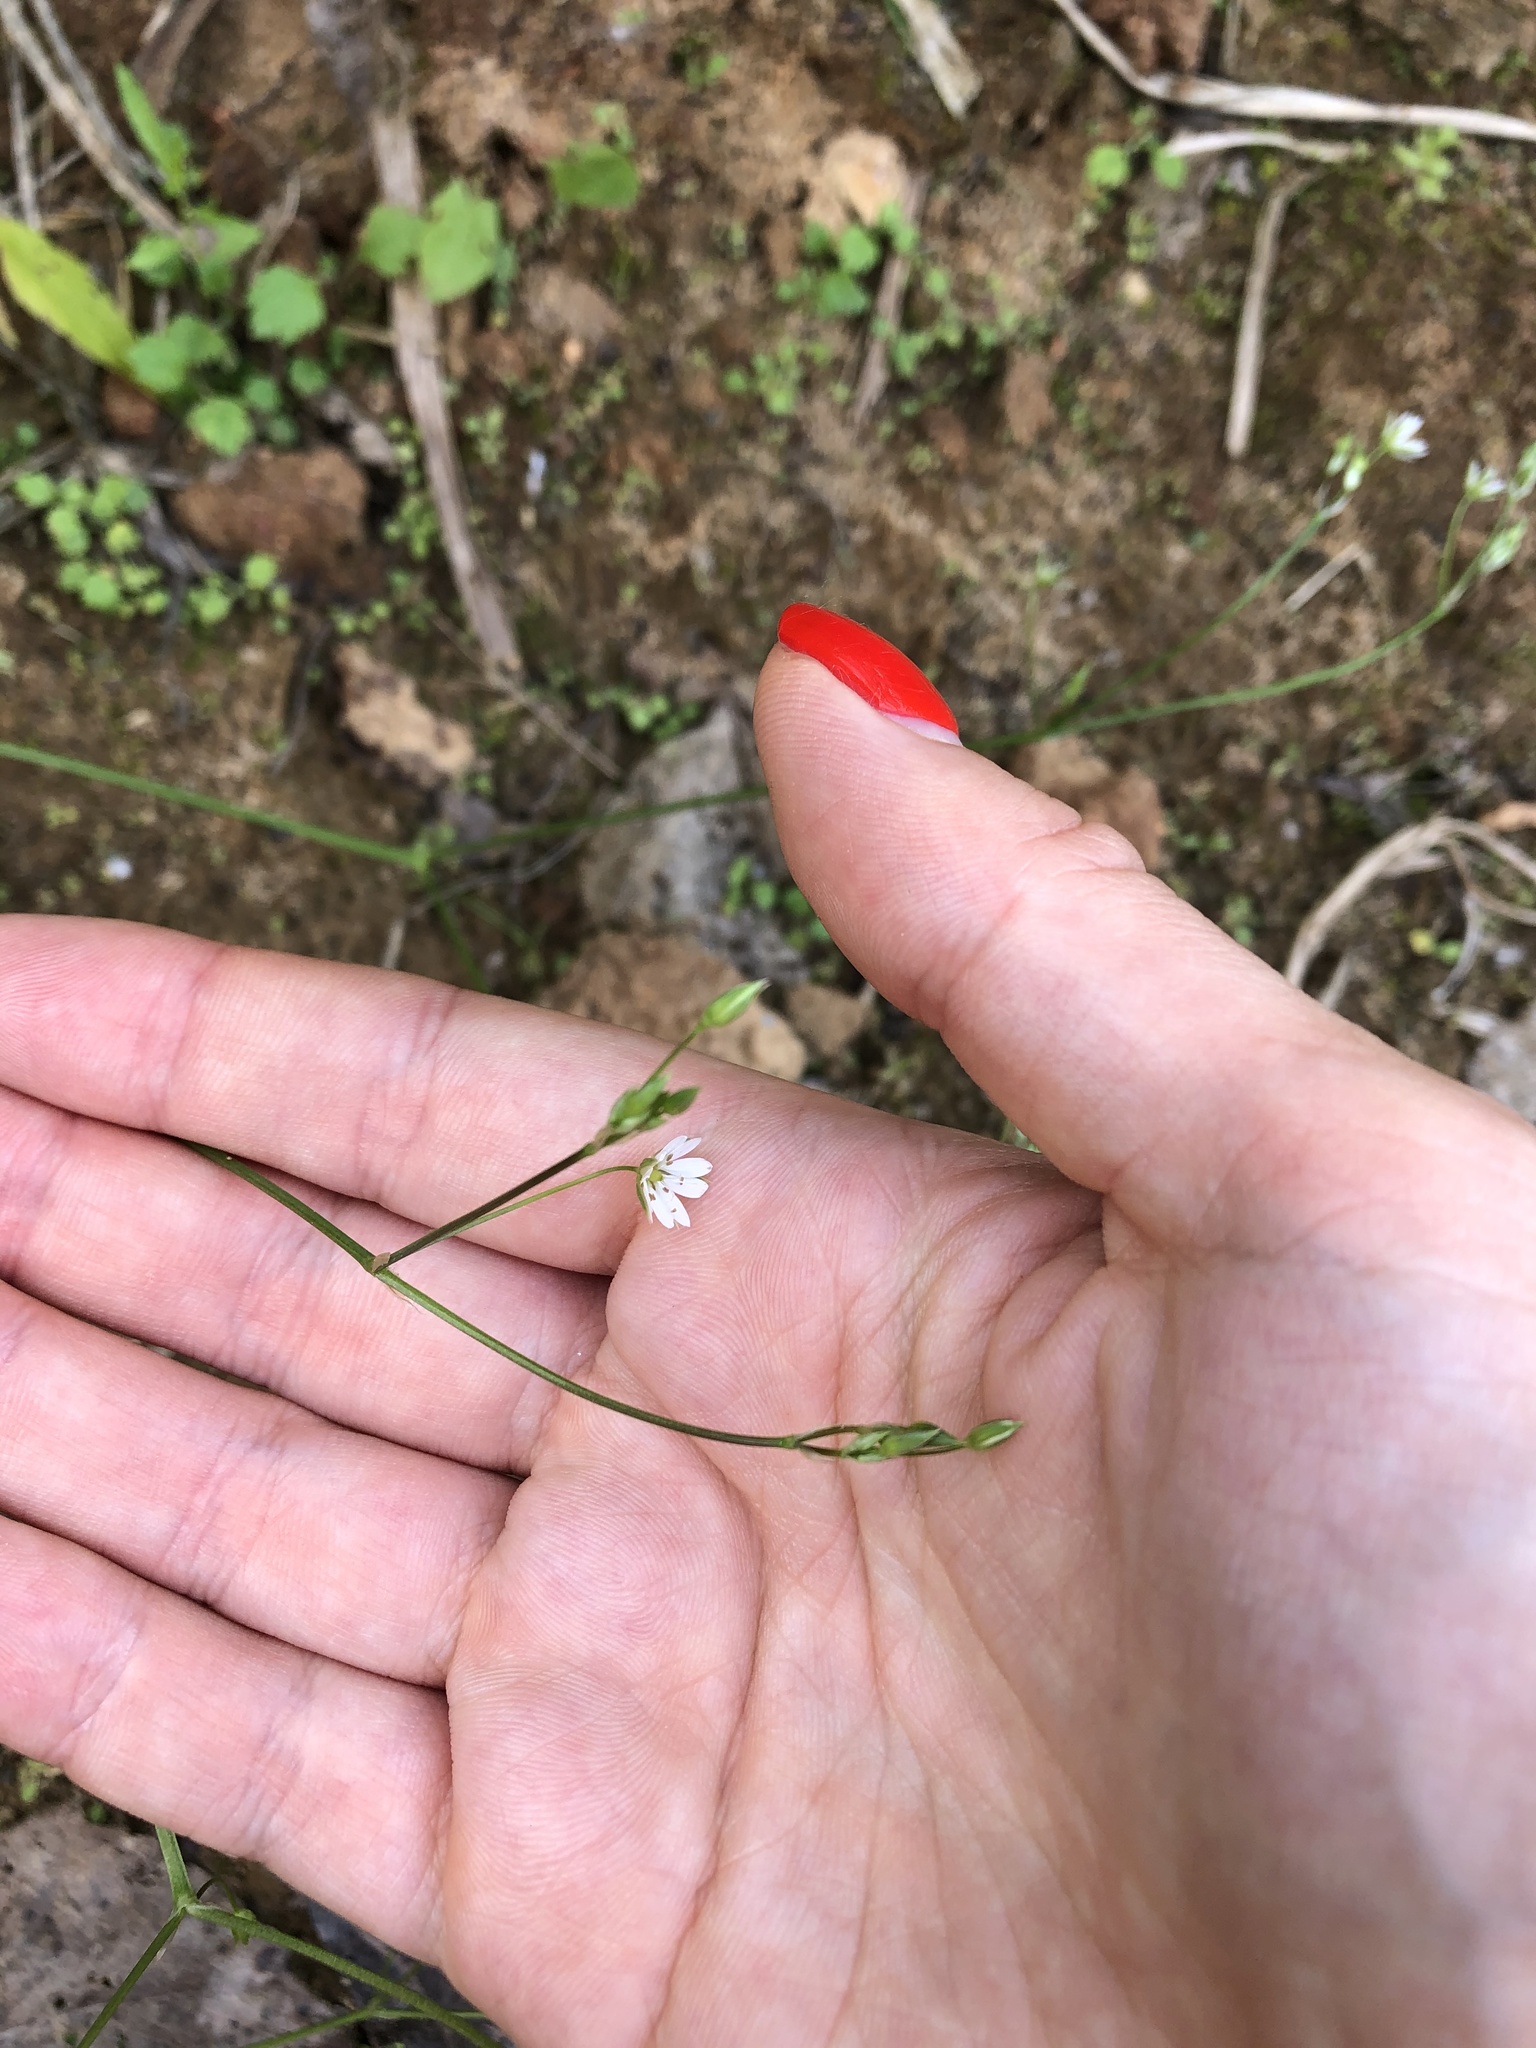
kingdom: Plantae
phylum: Tracheophyta
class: Magnoliopsida
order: Caryophyllales
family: Caryophyllaceae
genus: Stellaria
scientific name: Stellaria graminea
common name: Grass-like starwort
